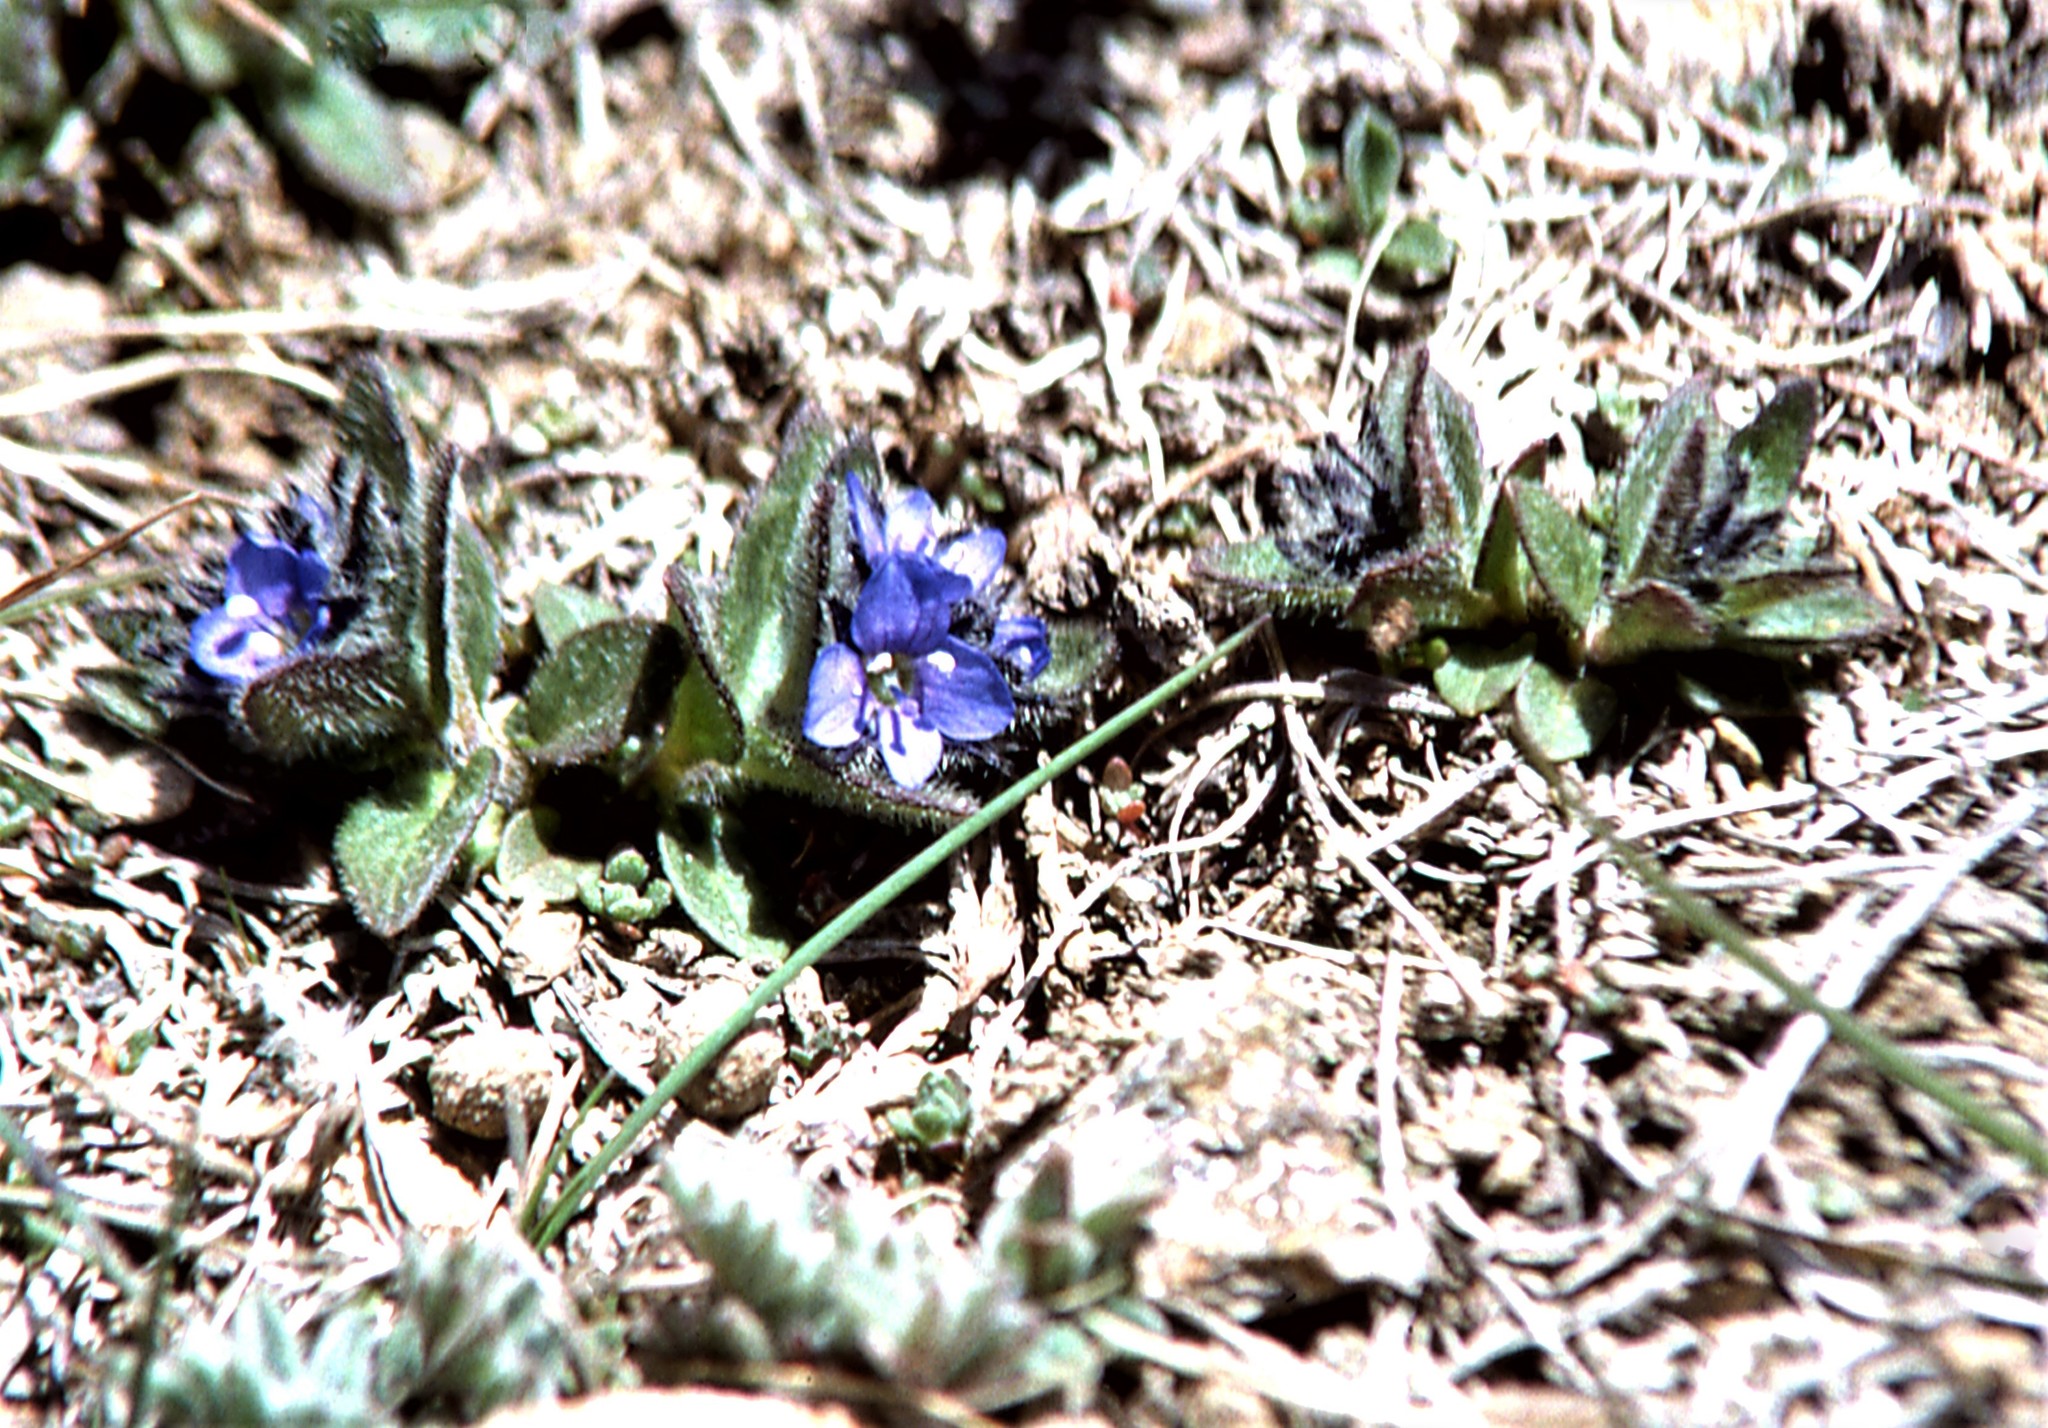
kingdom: Plantae
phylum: Tracheophyta
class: Magnoliopsida
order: Lamiales
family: Plantaginaceae
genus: Veronica
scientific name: Veronica ciliata
